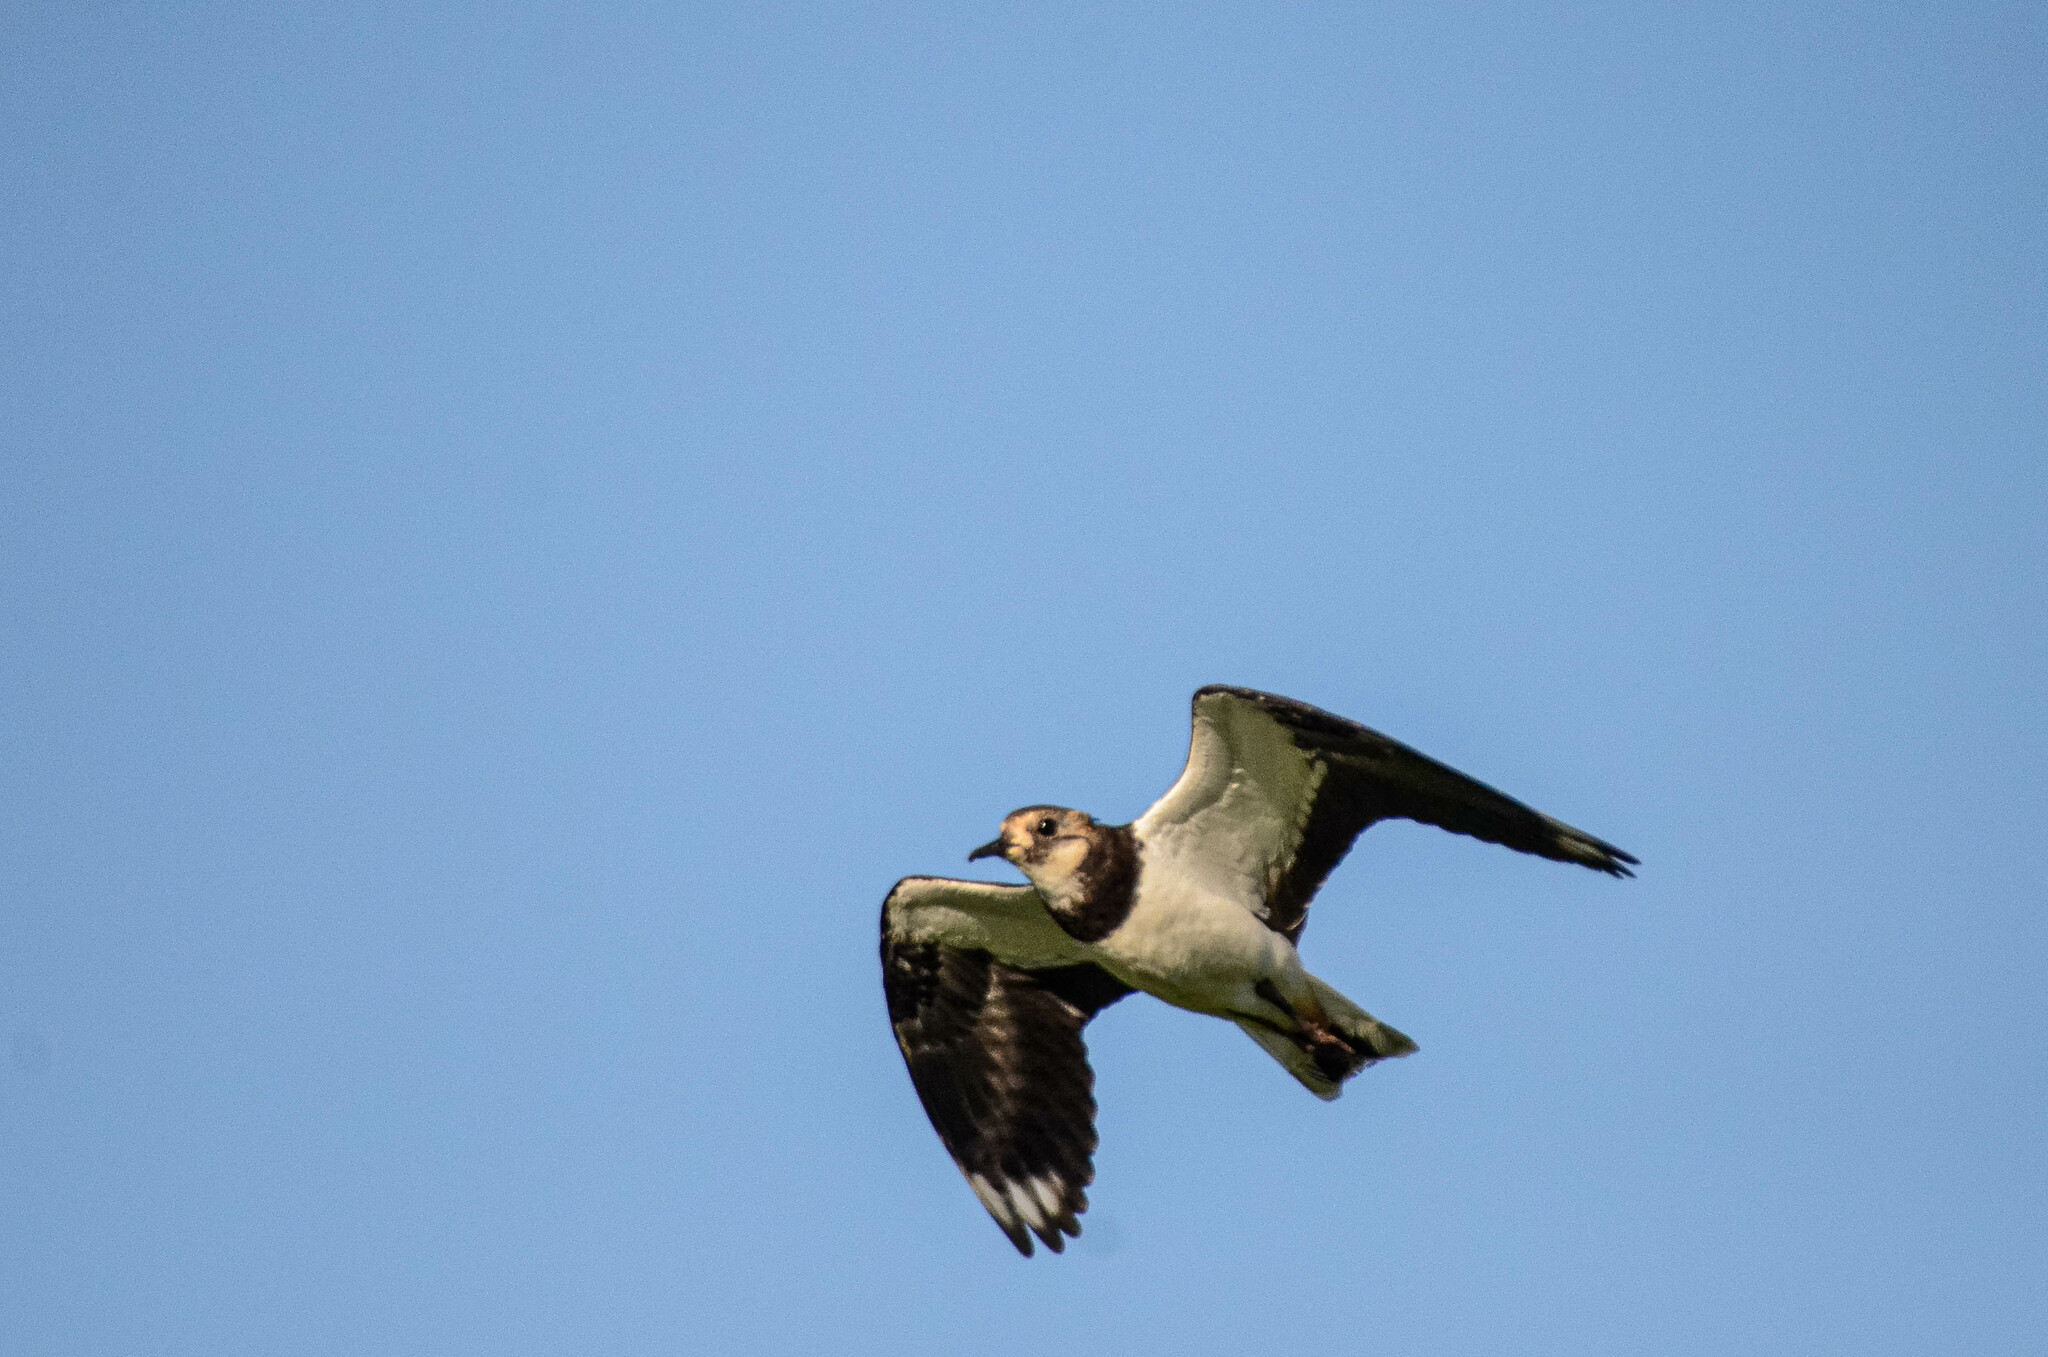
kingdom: Animalia
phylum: Chordata
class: Aves
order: Charadriiformes
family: Charadriidae
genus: Vanellus
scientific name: Vanellus vanellus
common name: Northern lapwing
